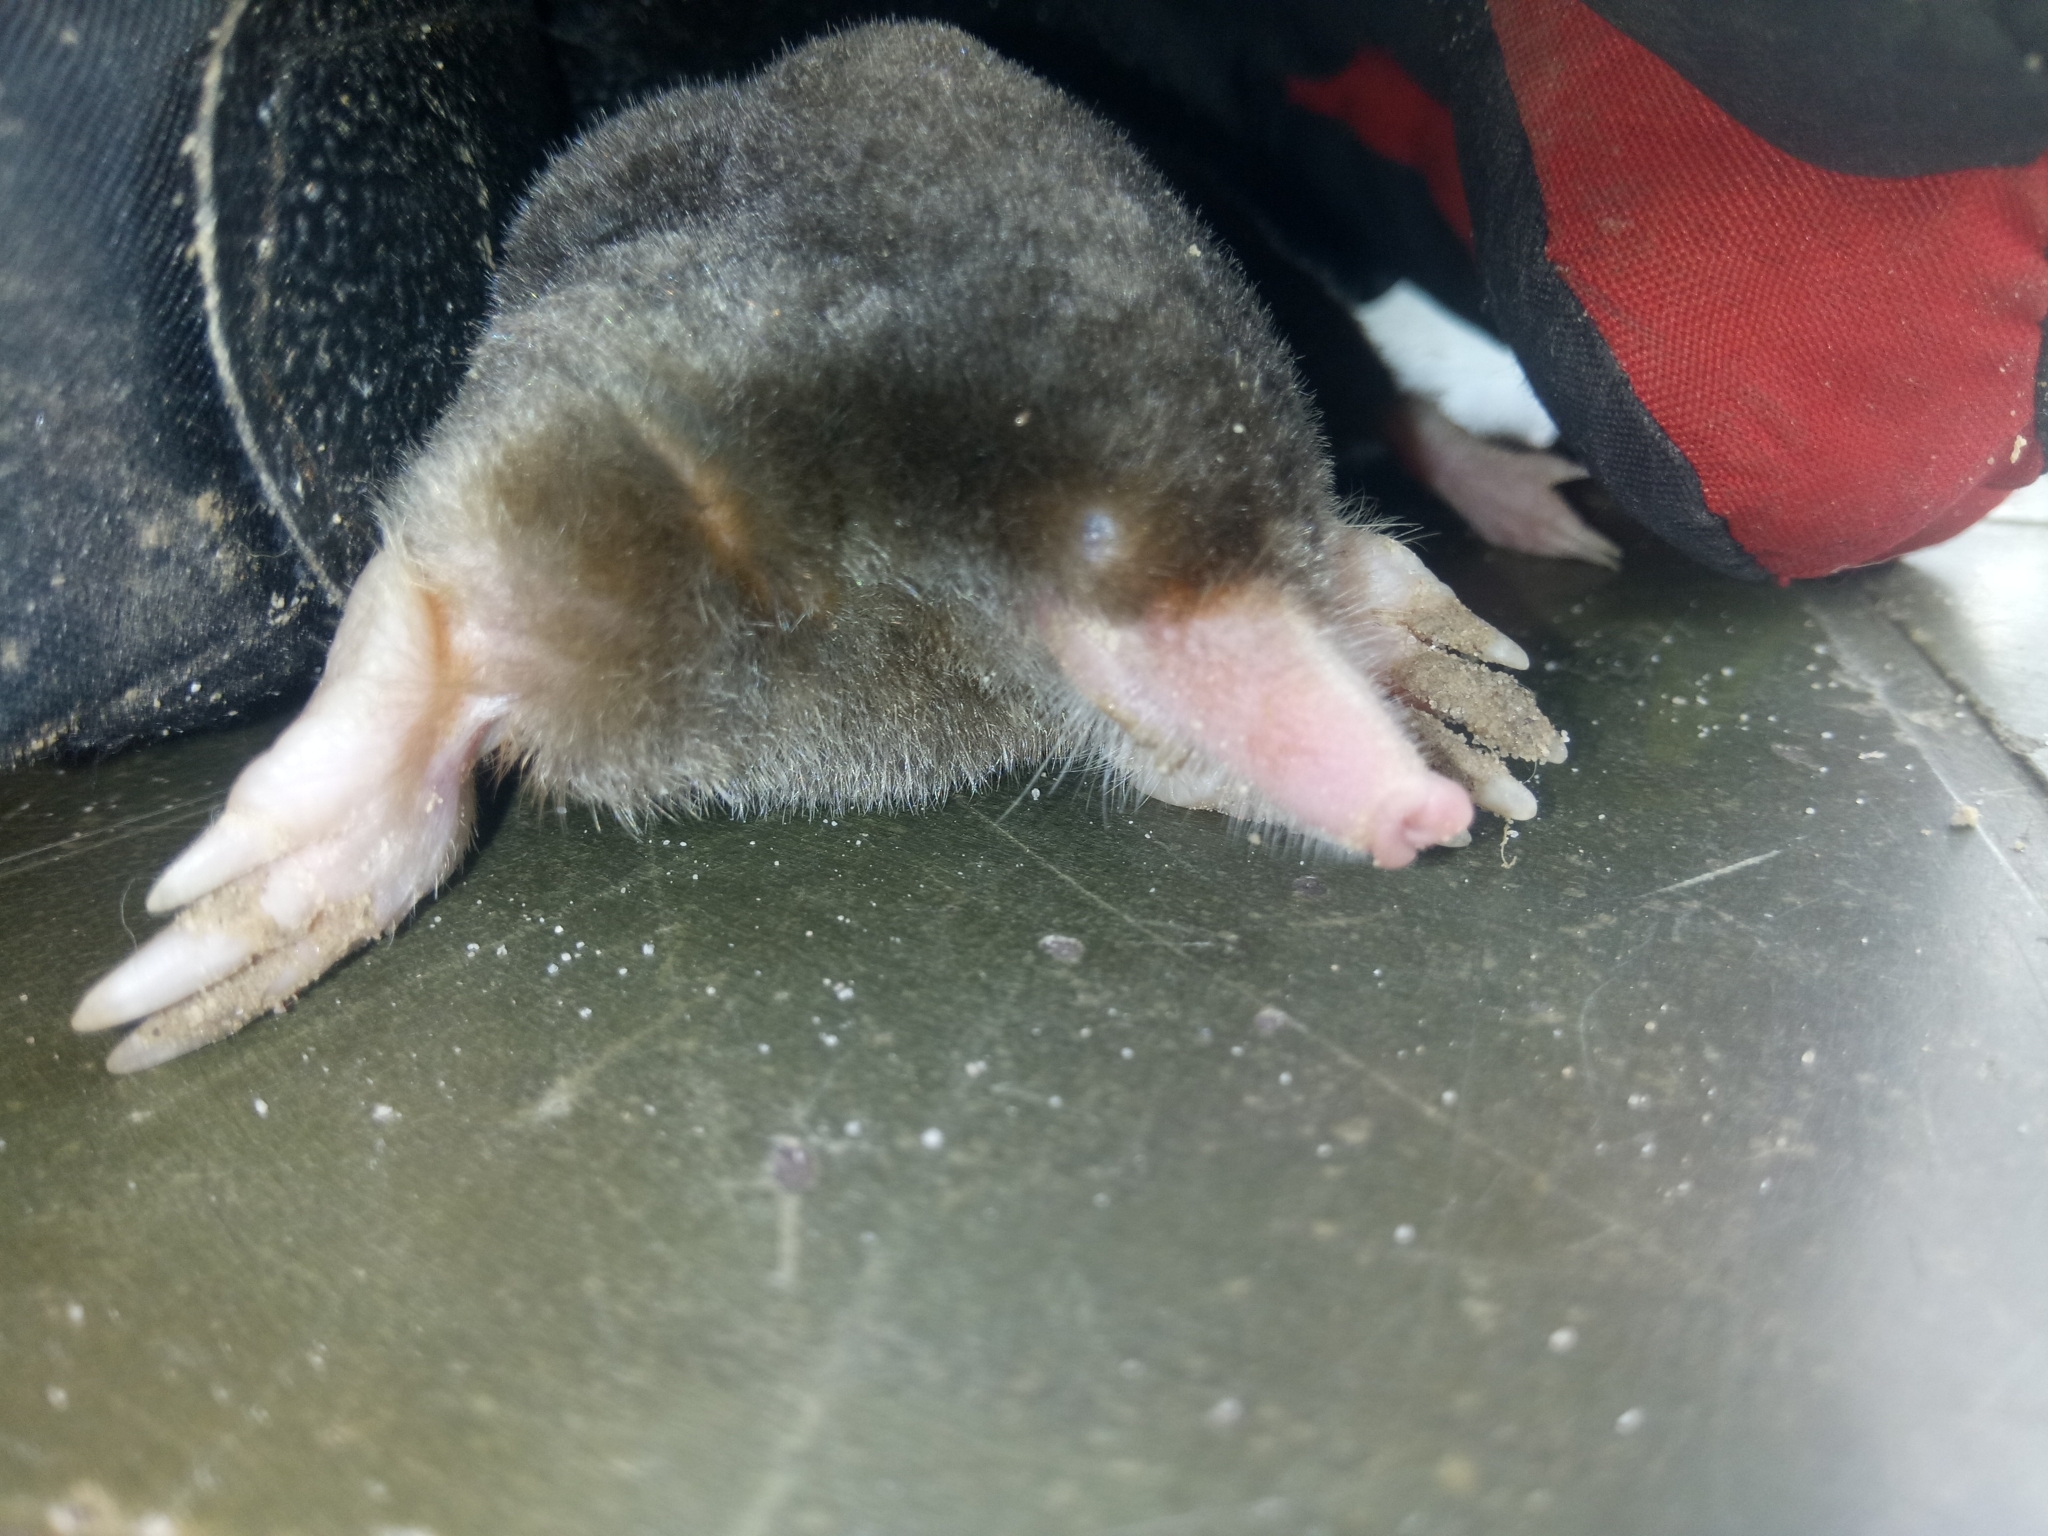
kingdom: Animalia
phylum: Chordata
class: Mammalia
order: Soricomorpha
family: Talpidae
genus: Parascaptor
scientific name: Parascaptor leucura
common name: White-tailed mole
